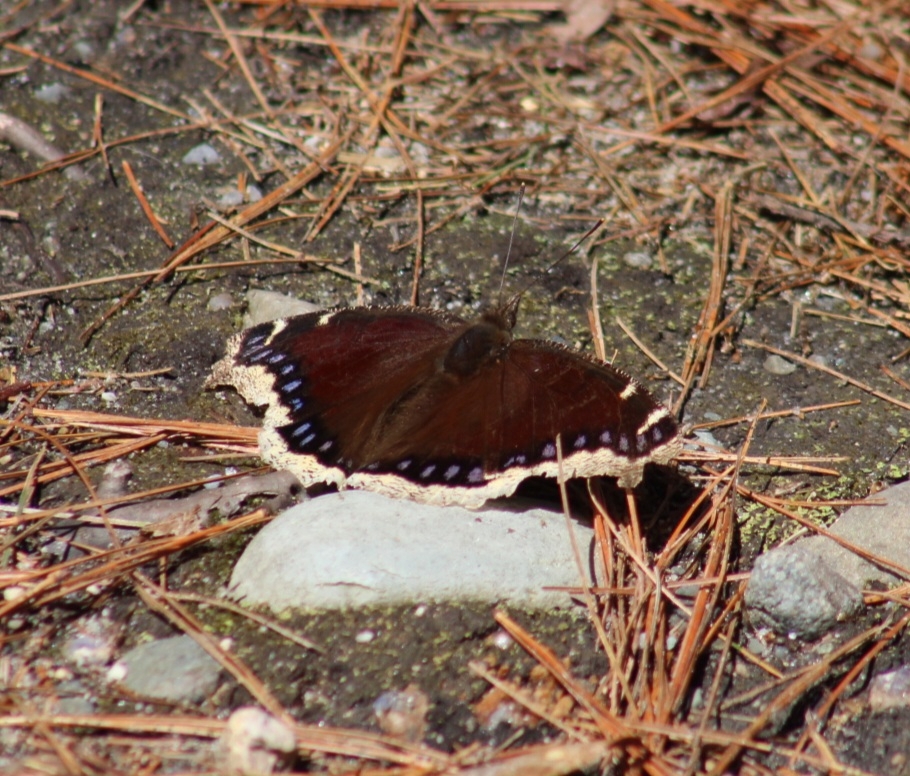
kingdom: Animalia
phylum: Arthropoda
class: Insecta
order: Lepidoptera
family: Nymphalidae
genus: Nymphalis
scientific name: Nymphalis antiopa
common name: Camberwell beauty
